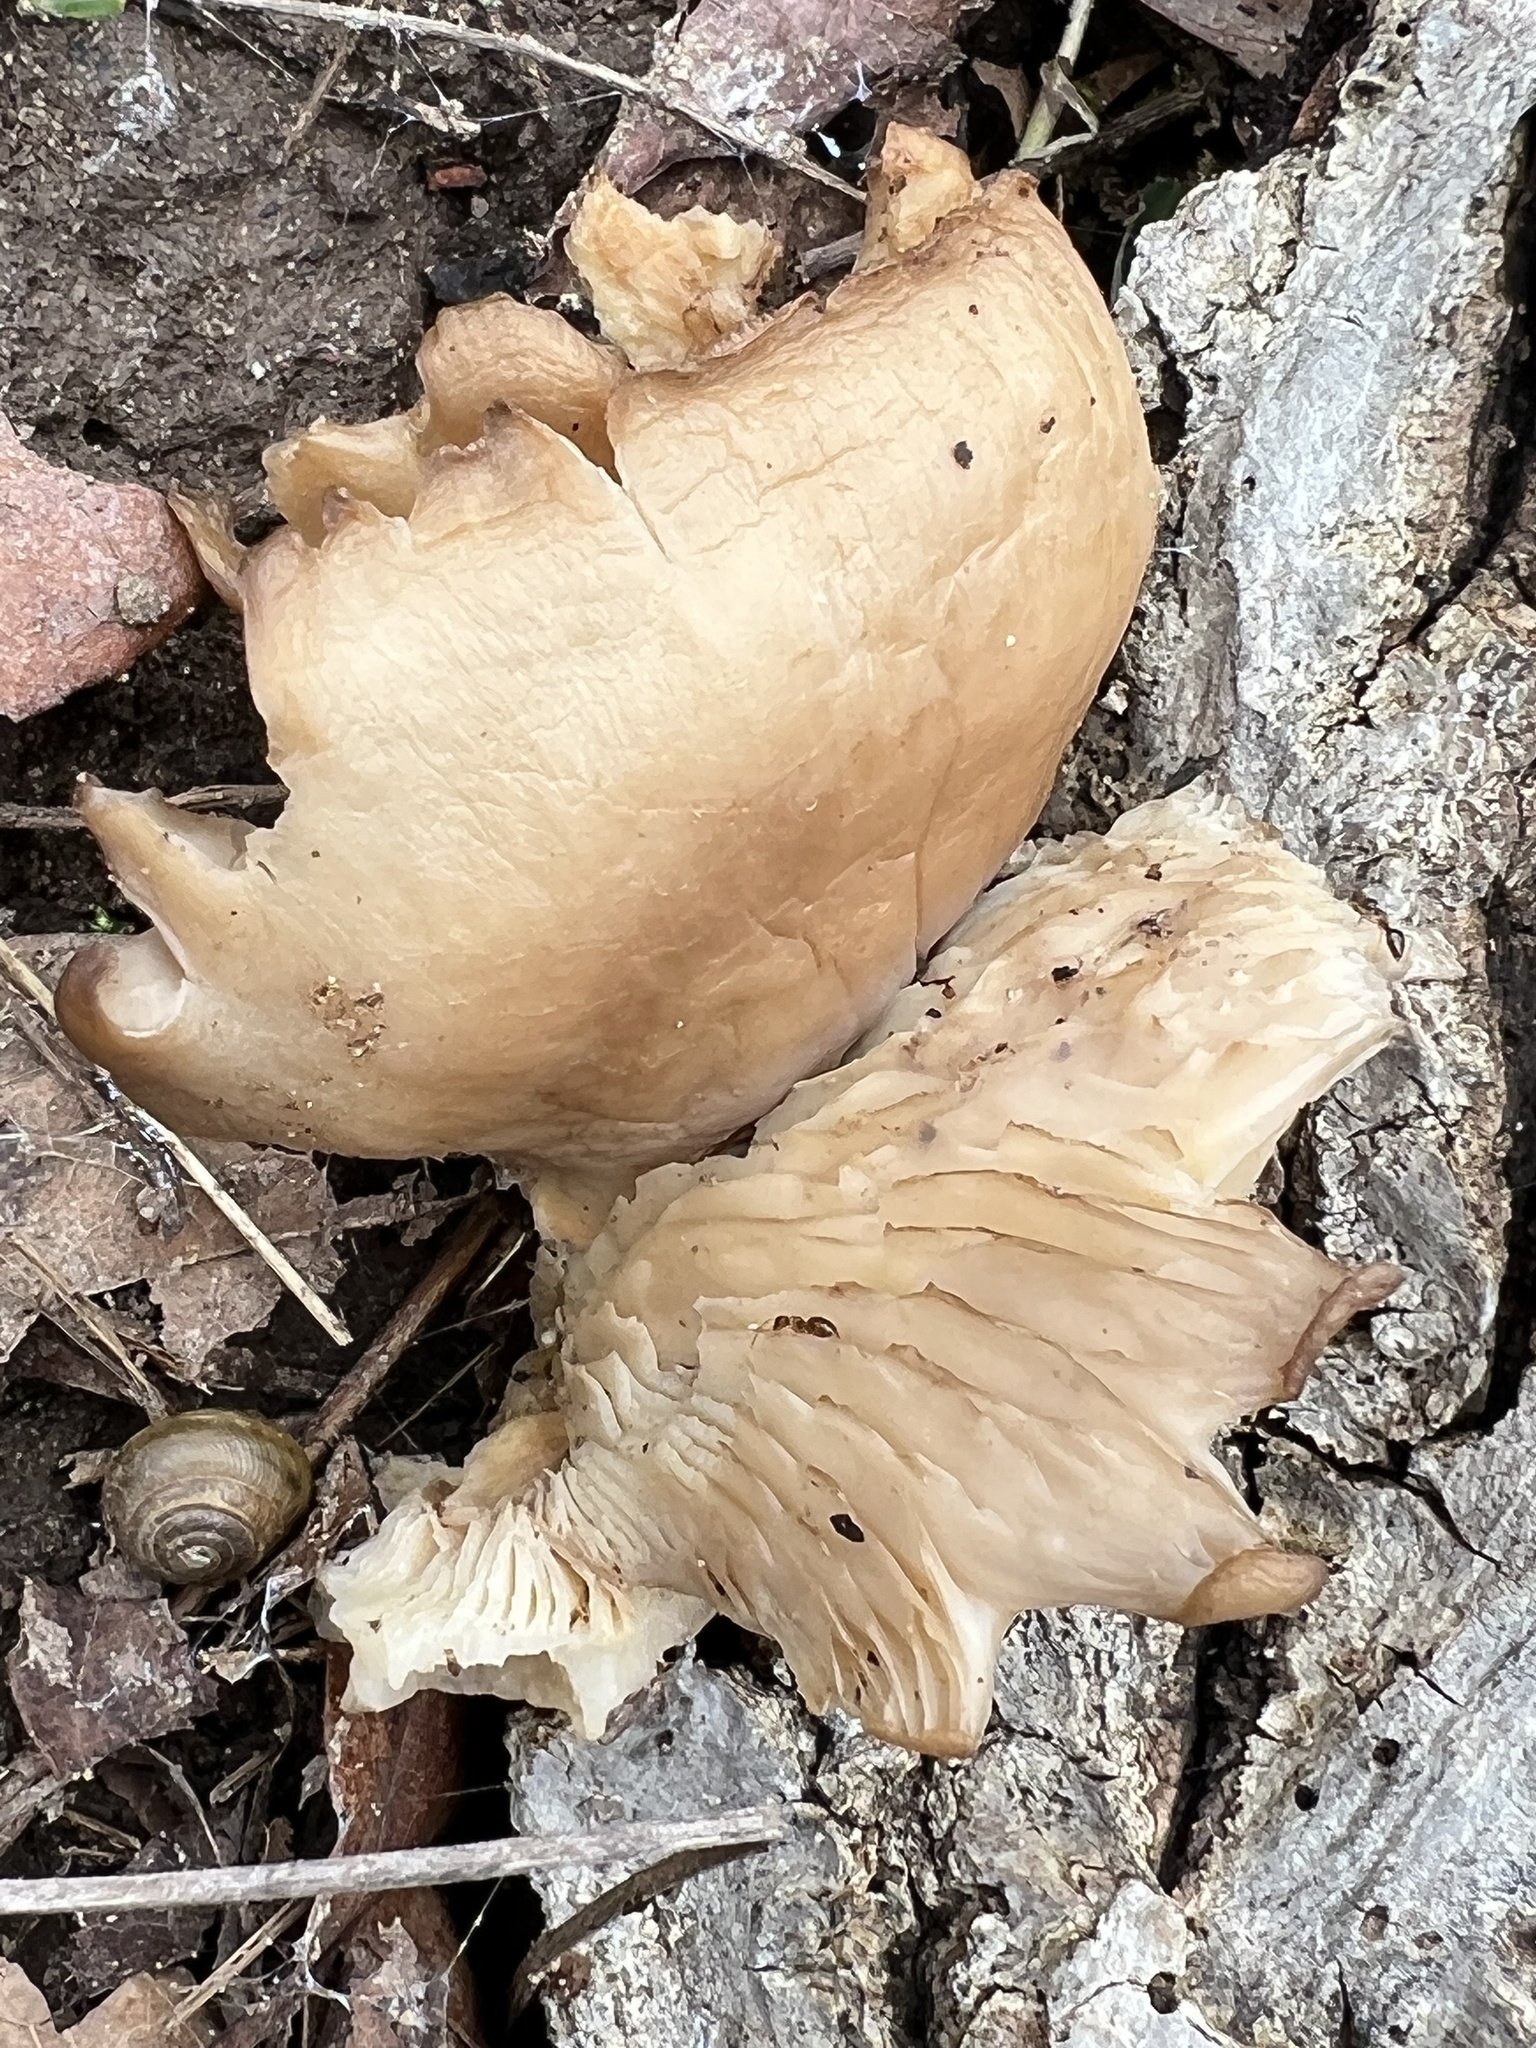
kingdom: Fungi
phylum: Basidiomycota
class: Agaricomycetes
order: Agaricales
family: Pleurotaceae
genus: Pleurotus
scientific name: Pleurotus ostreatus
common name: Oyster mushroom
